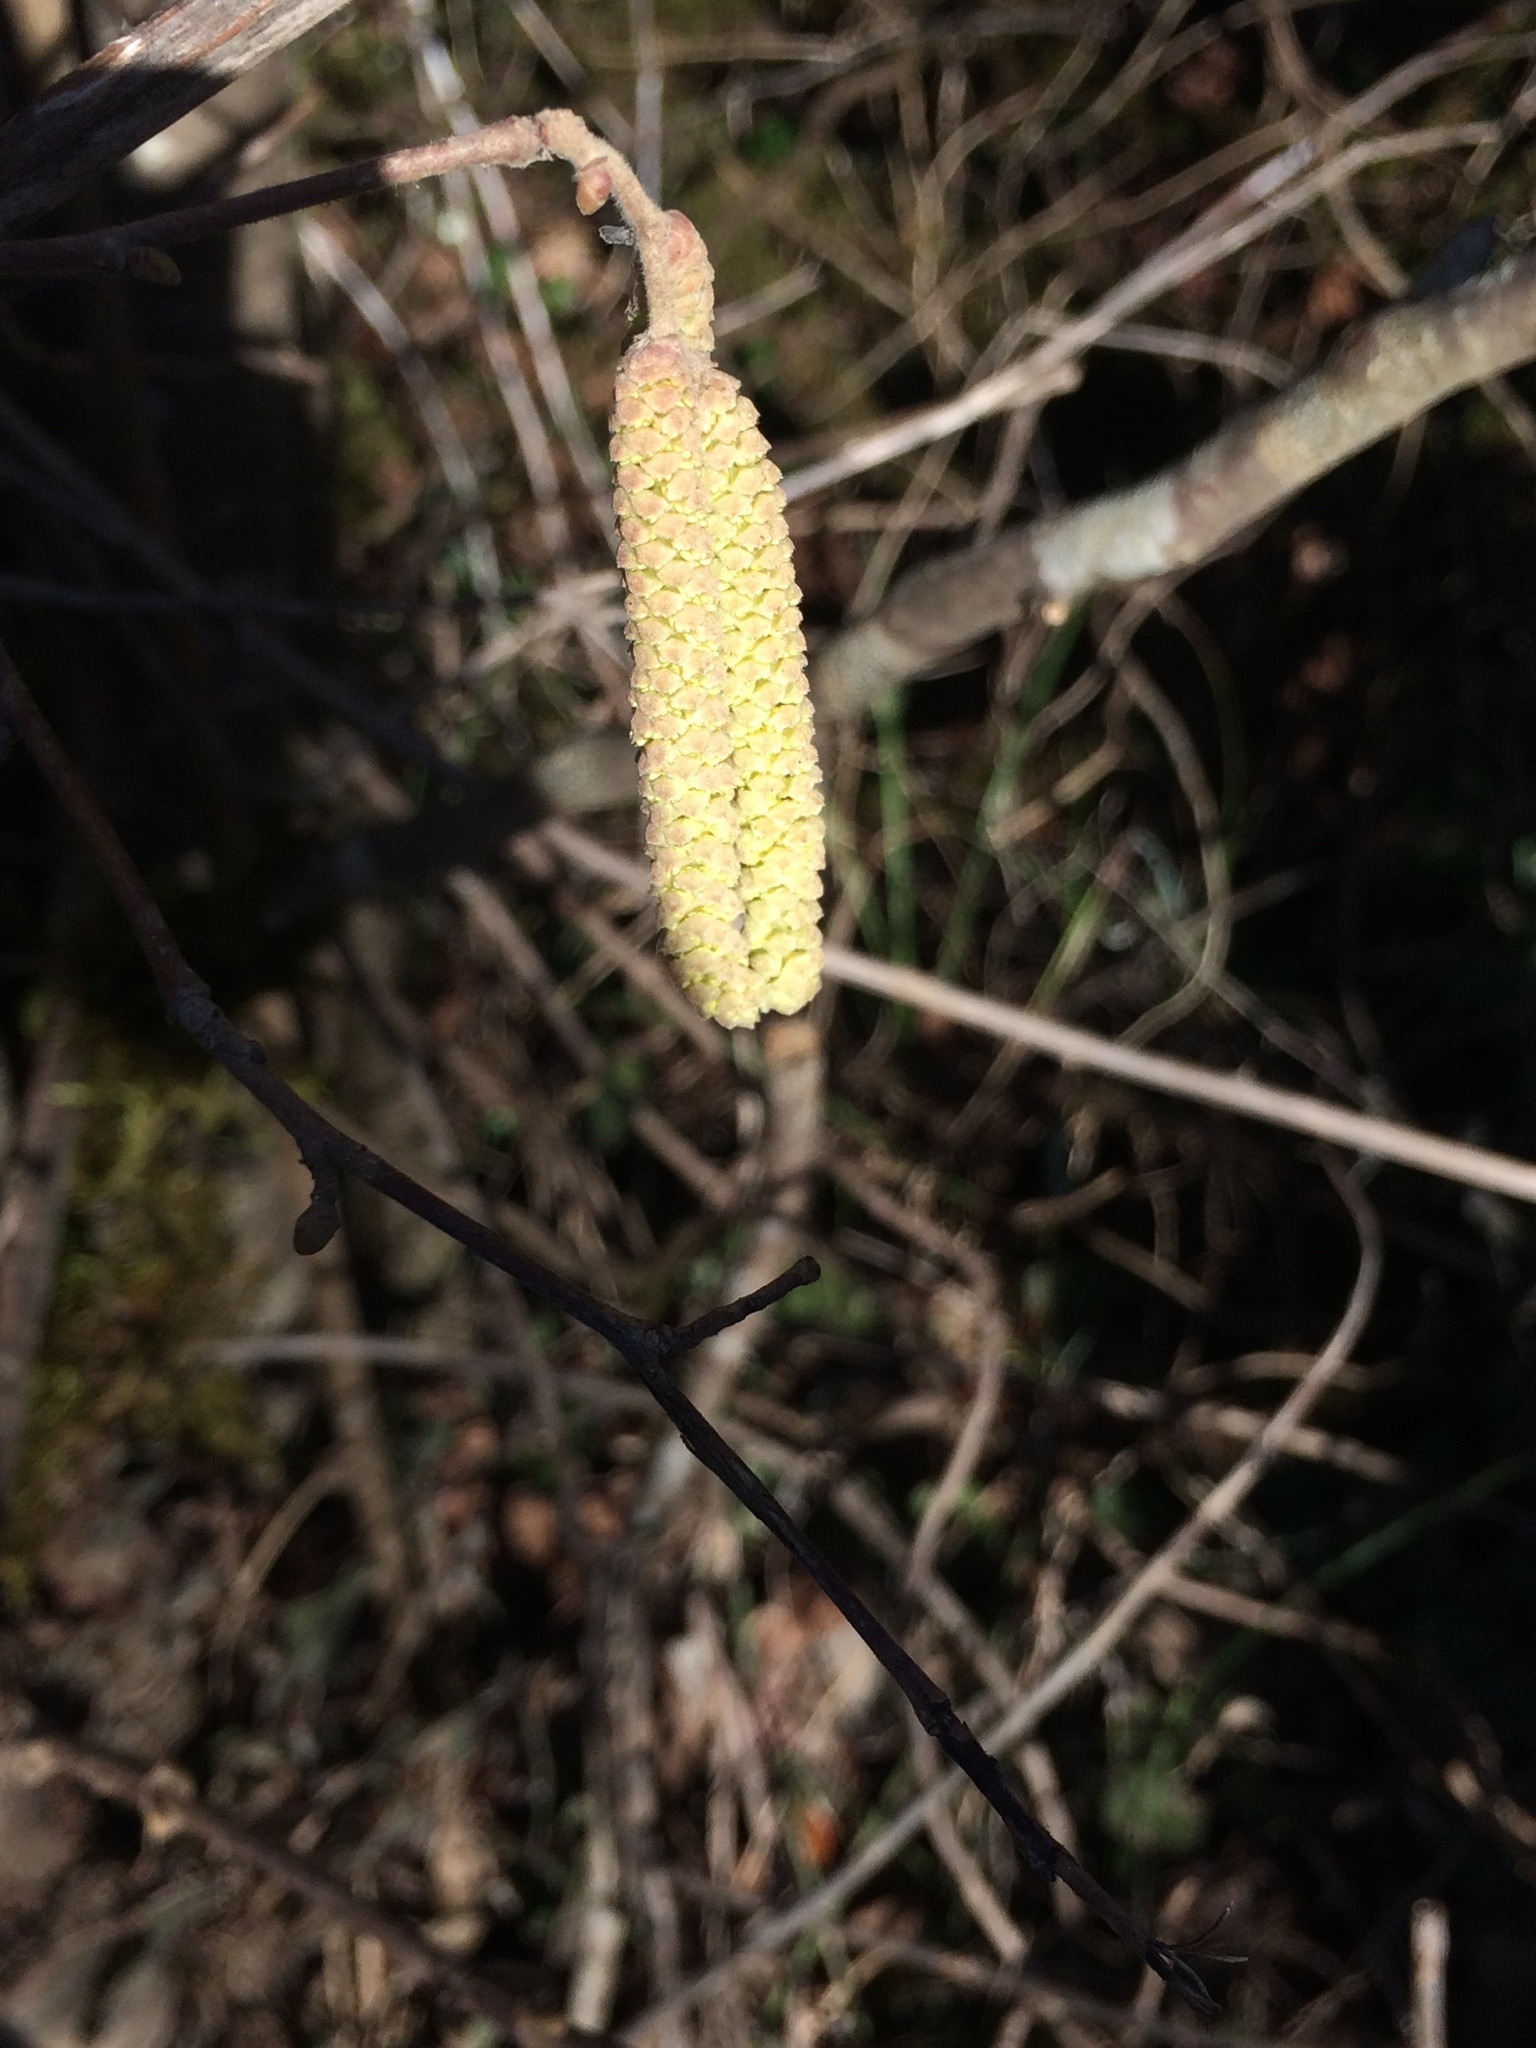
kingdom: Plantae
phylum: Tracheophyta
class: Magnoliopsida
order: Fagales
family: Betulaceae
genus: Corylus
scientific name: Corylus avellana
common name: European hazel
